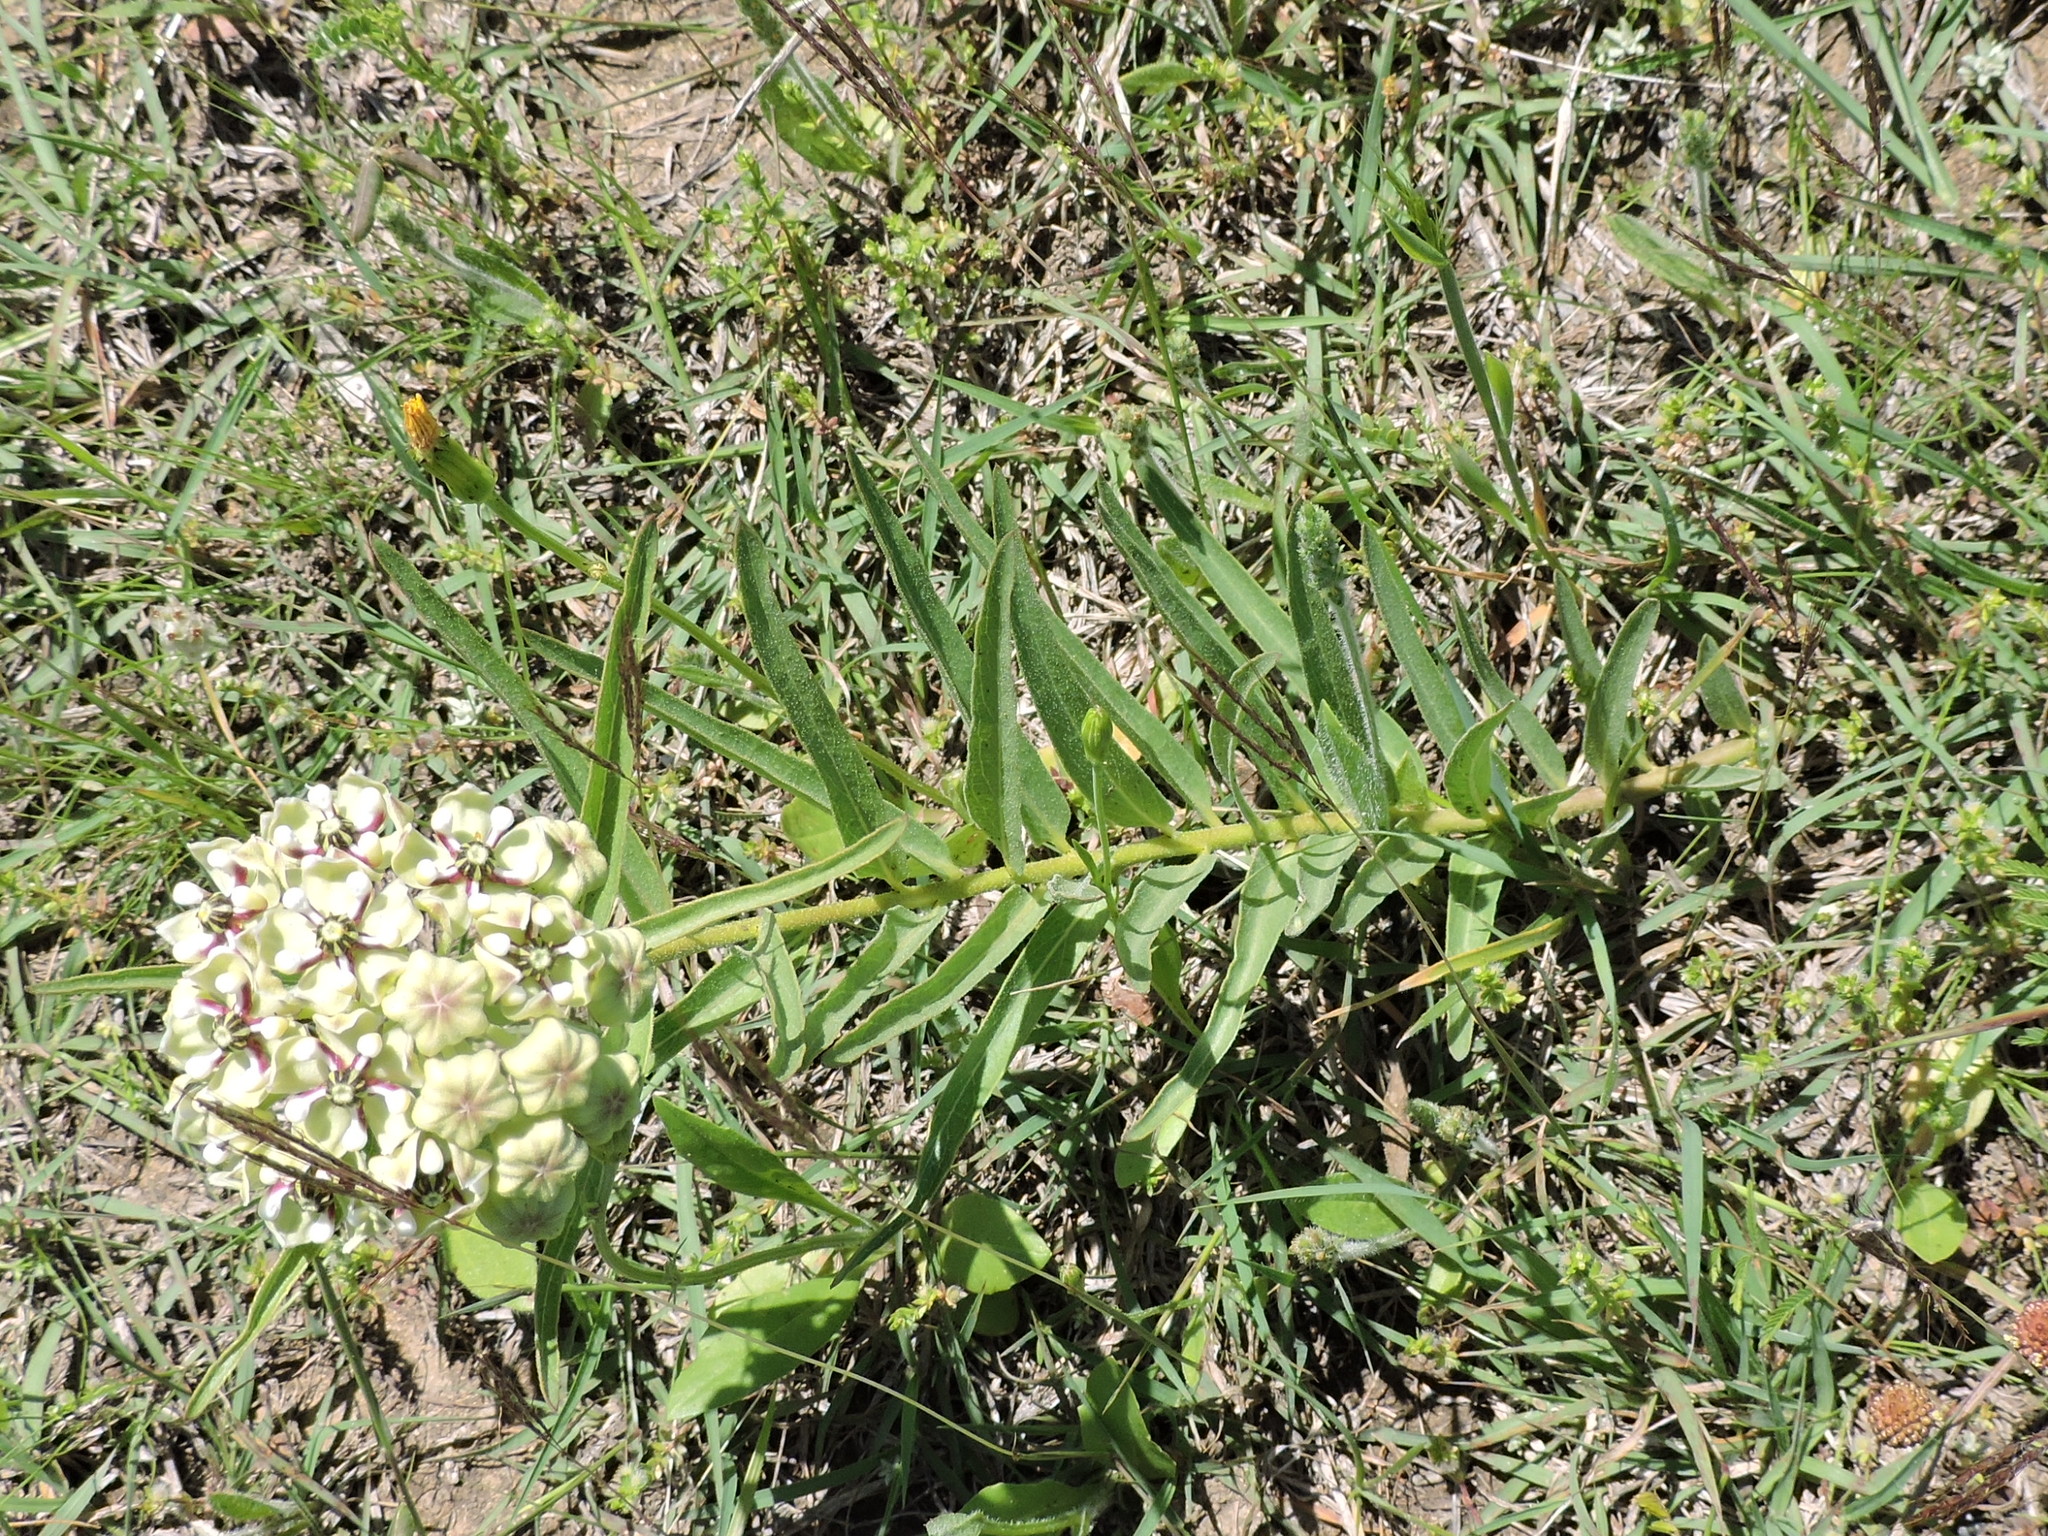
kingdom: Plantae
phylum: Tracheophyta
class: Magnoliopsida
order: Gentianales
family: Apocynaceae
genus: Asclepias
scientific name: Asclepias asperula
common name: Antelope horns
